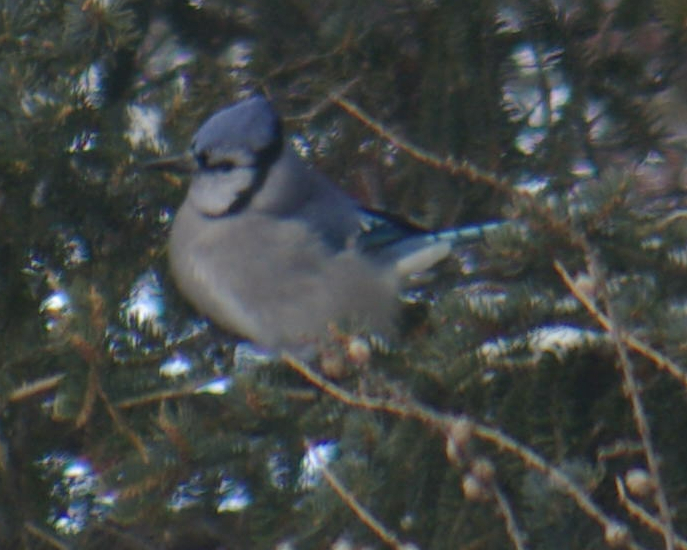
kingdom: Animalia
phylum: Chordata
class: Aves
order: Passeriformes
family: Corvidae
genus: Cyanocitta
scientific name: Cyanocitta cristata
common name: Blue jay
